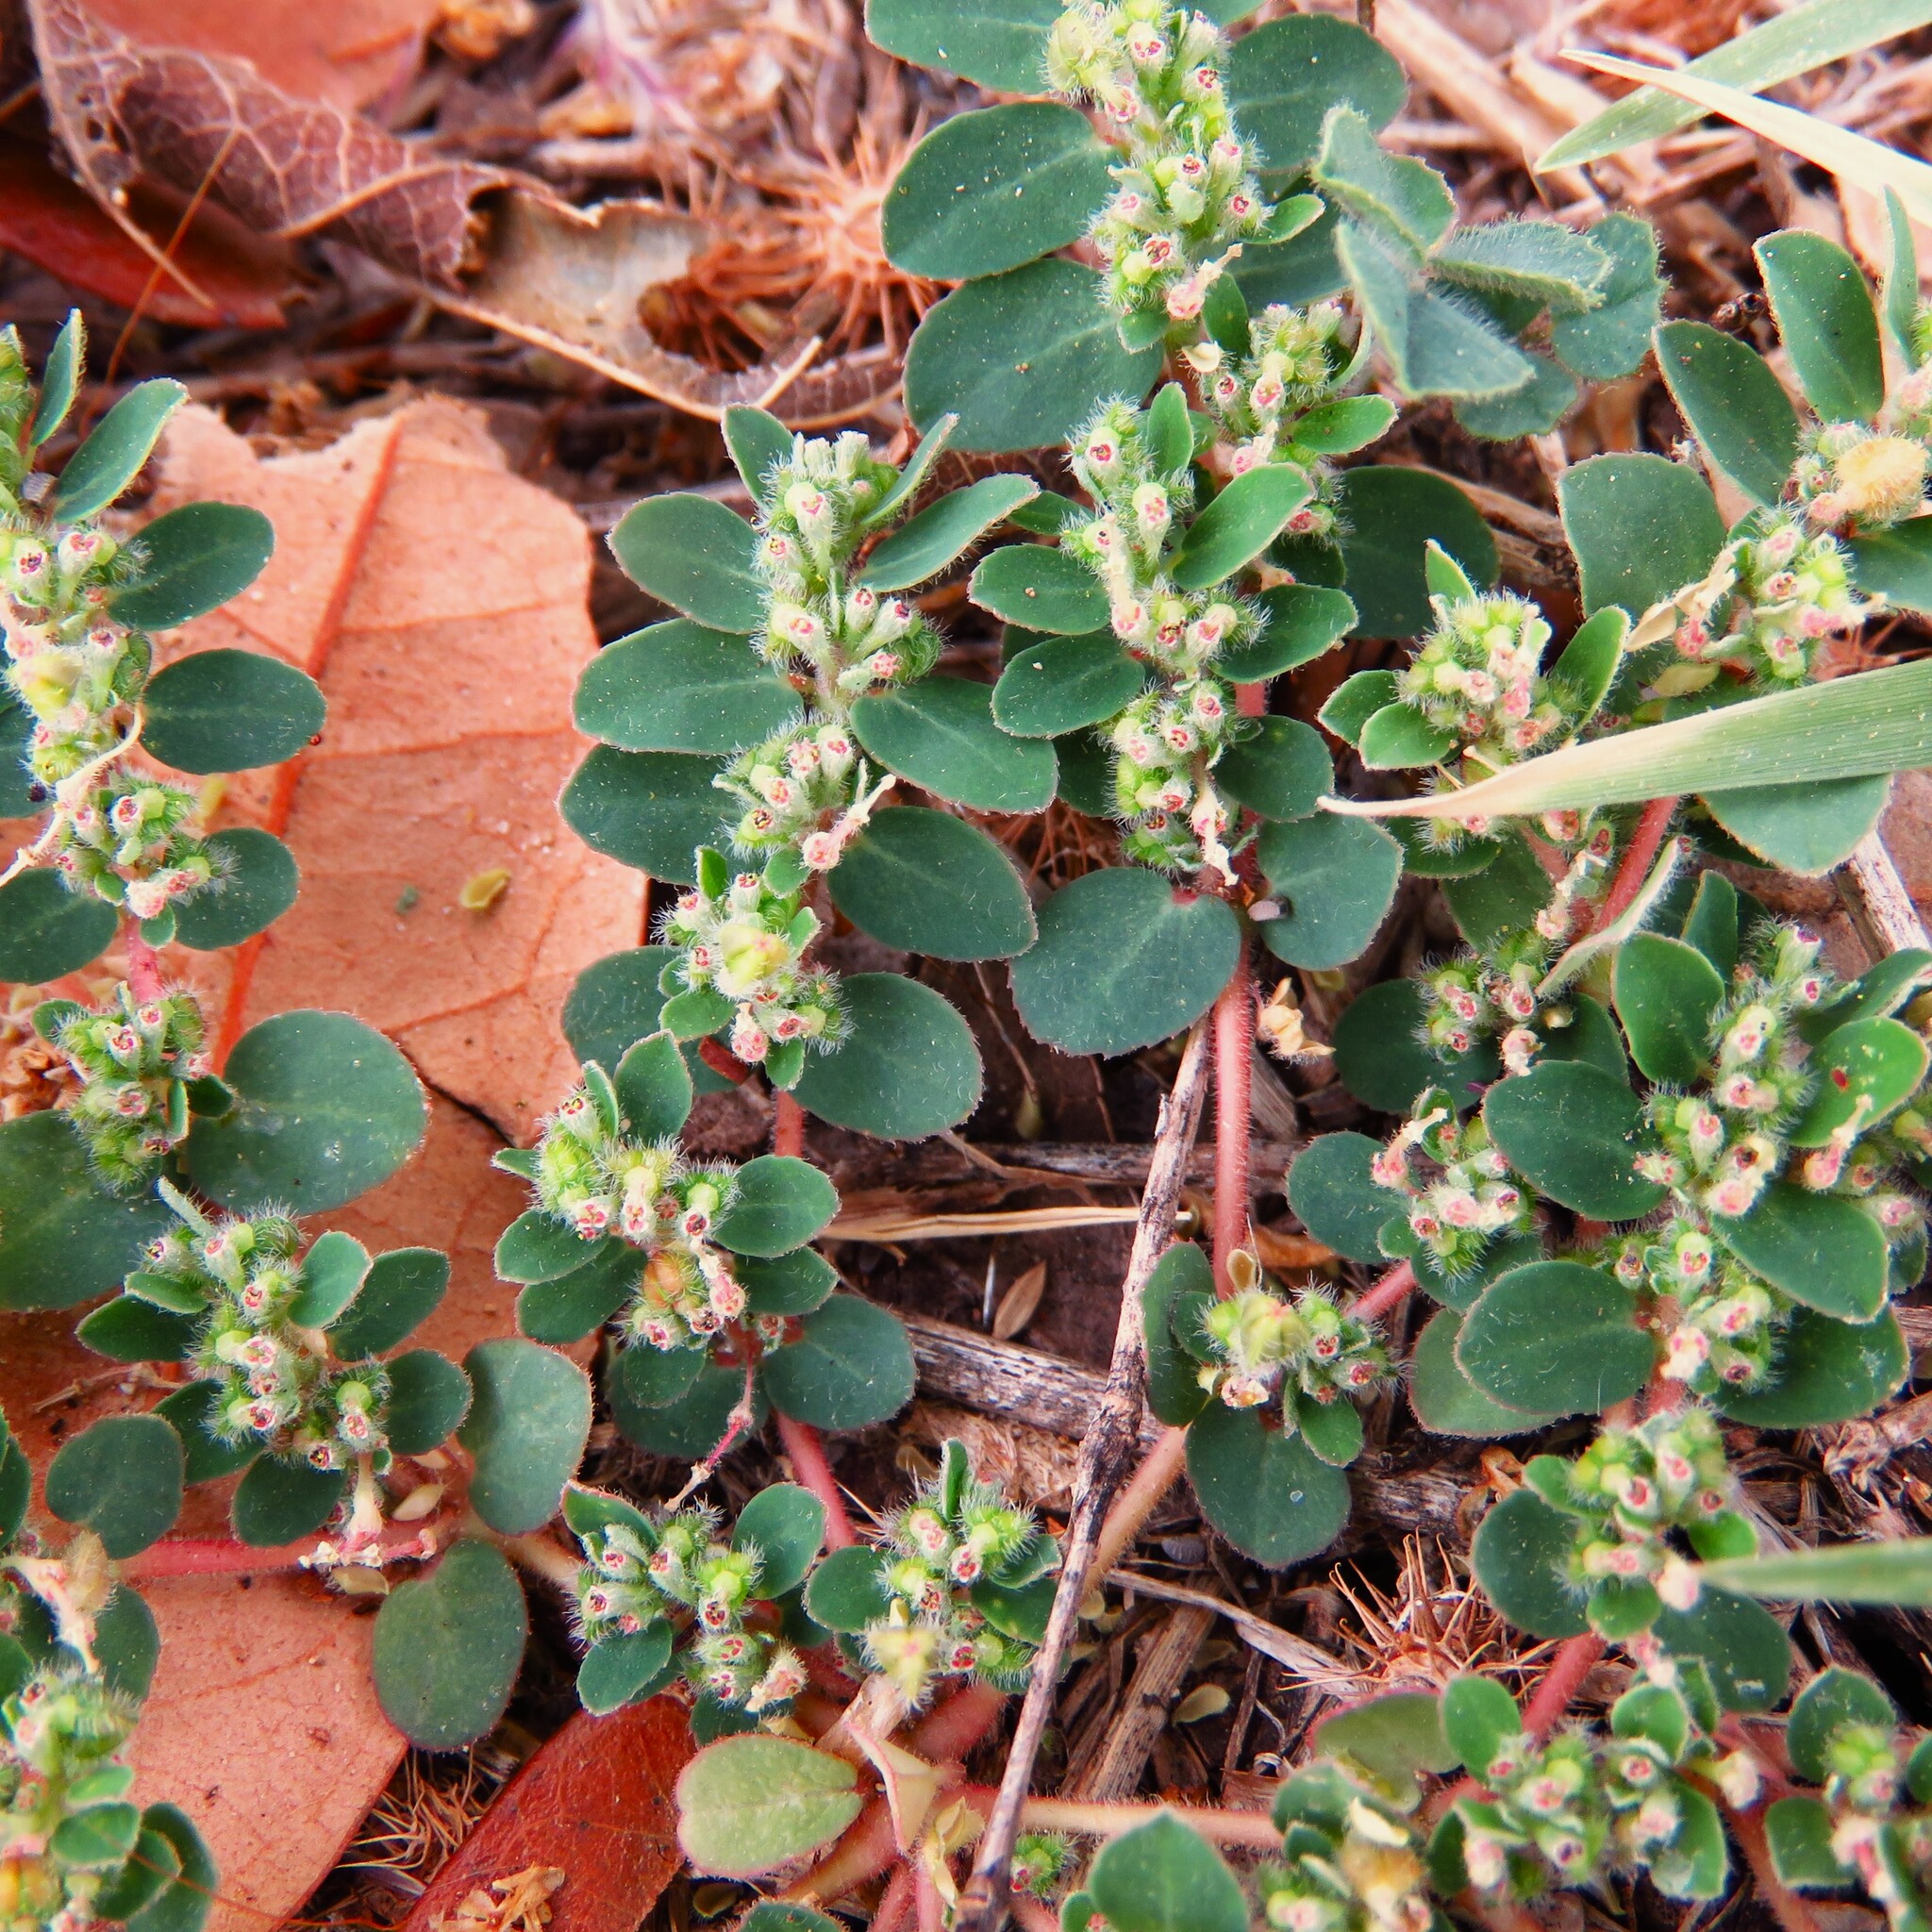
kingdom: Plantae
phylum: Tracheophyta
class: Magnoliopsida
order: Malpighiales
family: Euphorbiaceae
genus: Euphorbia
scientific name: Euphorbia prostrata
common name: Prostrate sandmat
